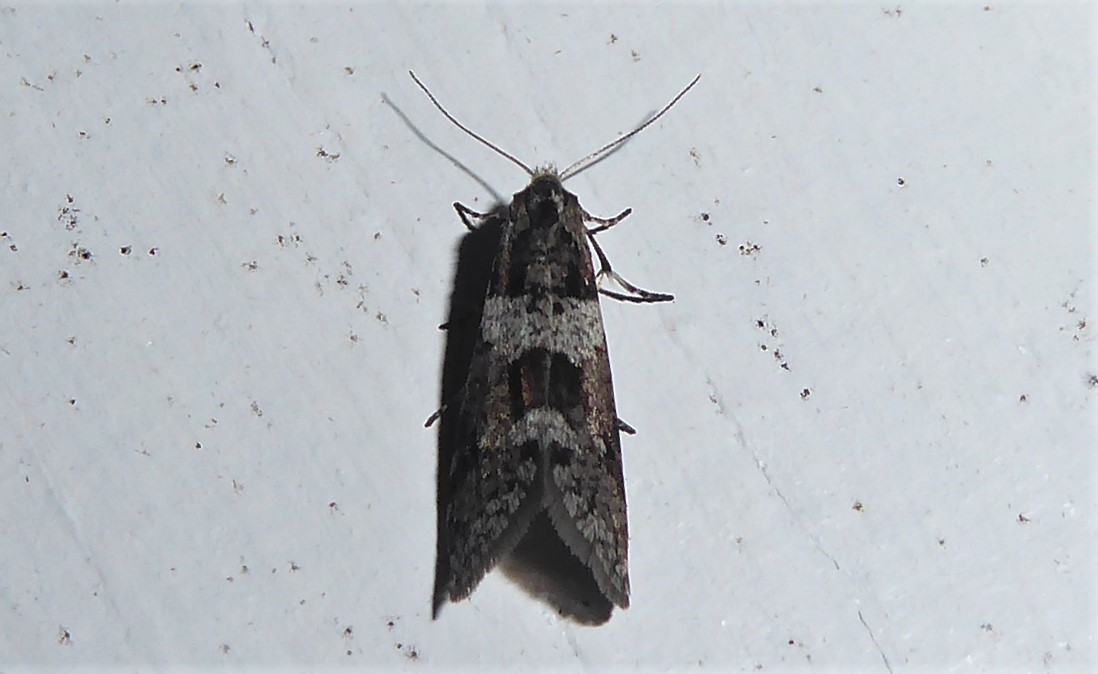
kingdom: Animalia
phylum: Arthropoda
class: Insecta
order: Lepidoptera
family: Psychidae
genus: Lepidoscia
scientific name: Lepidoscia heliochares
